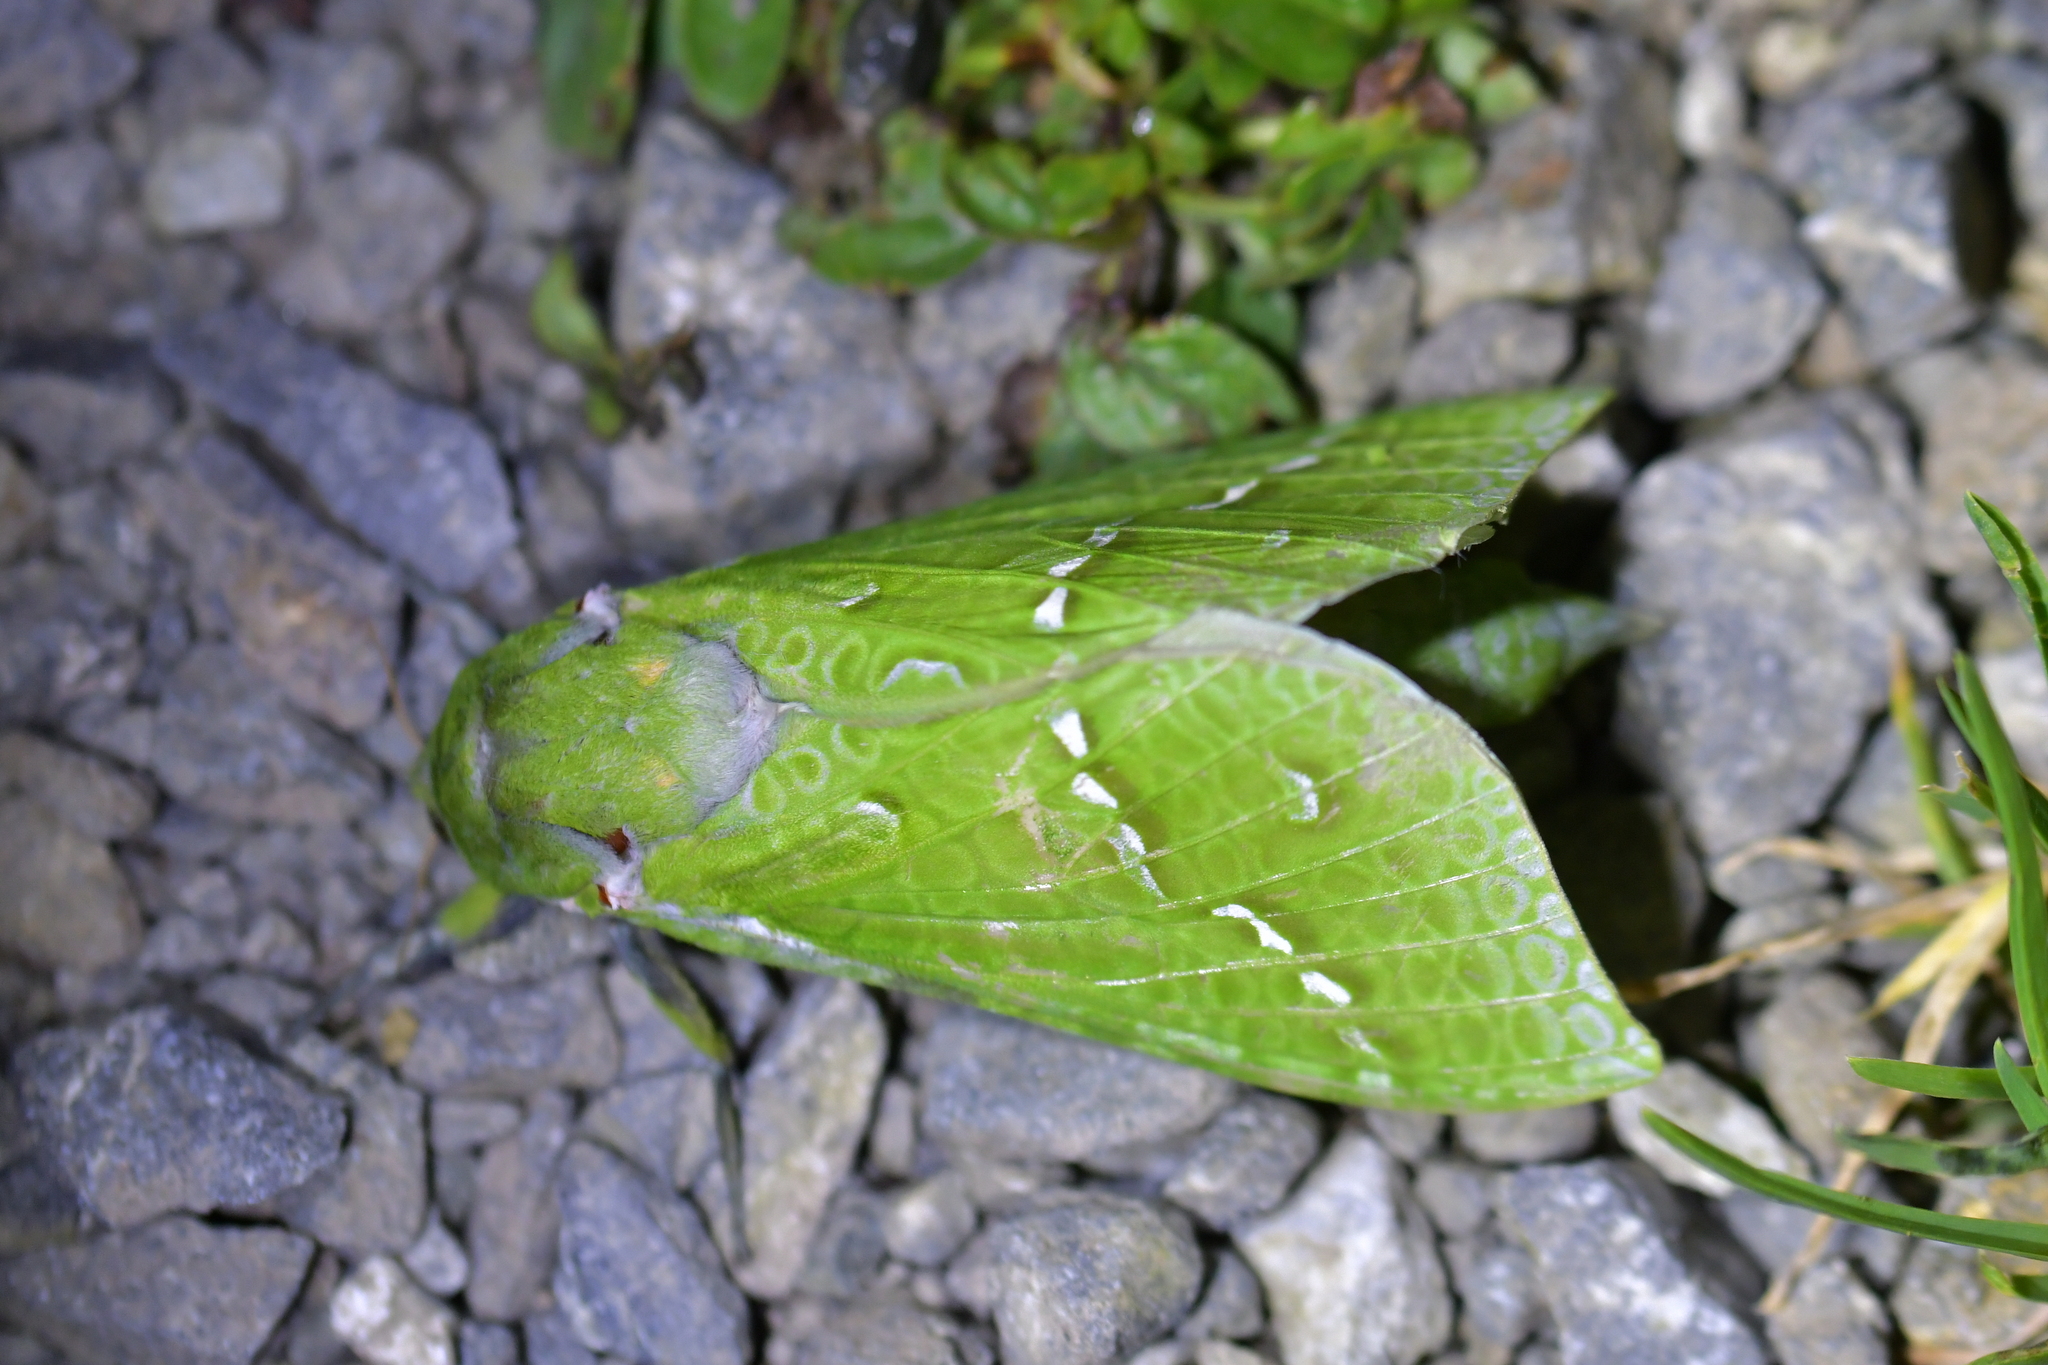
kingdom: Animalia
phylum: Arthropoda
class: Insecta
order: Lepidoptera
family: Hepialidae
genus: Aenetus
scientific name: Aenetus virescens
